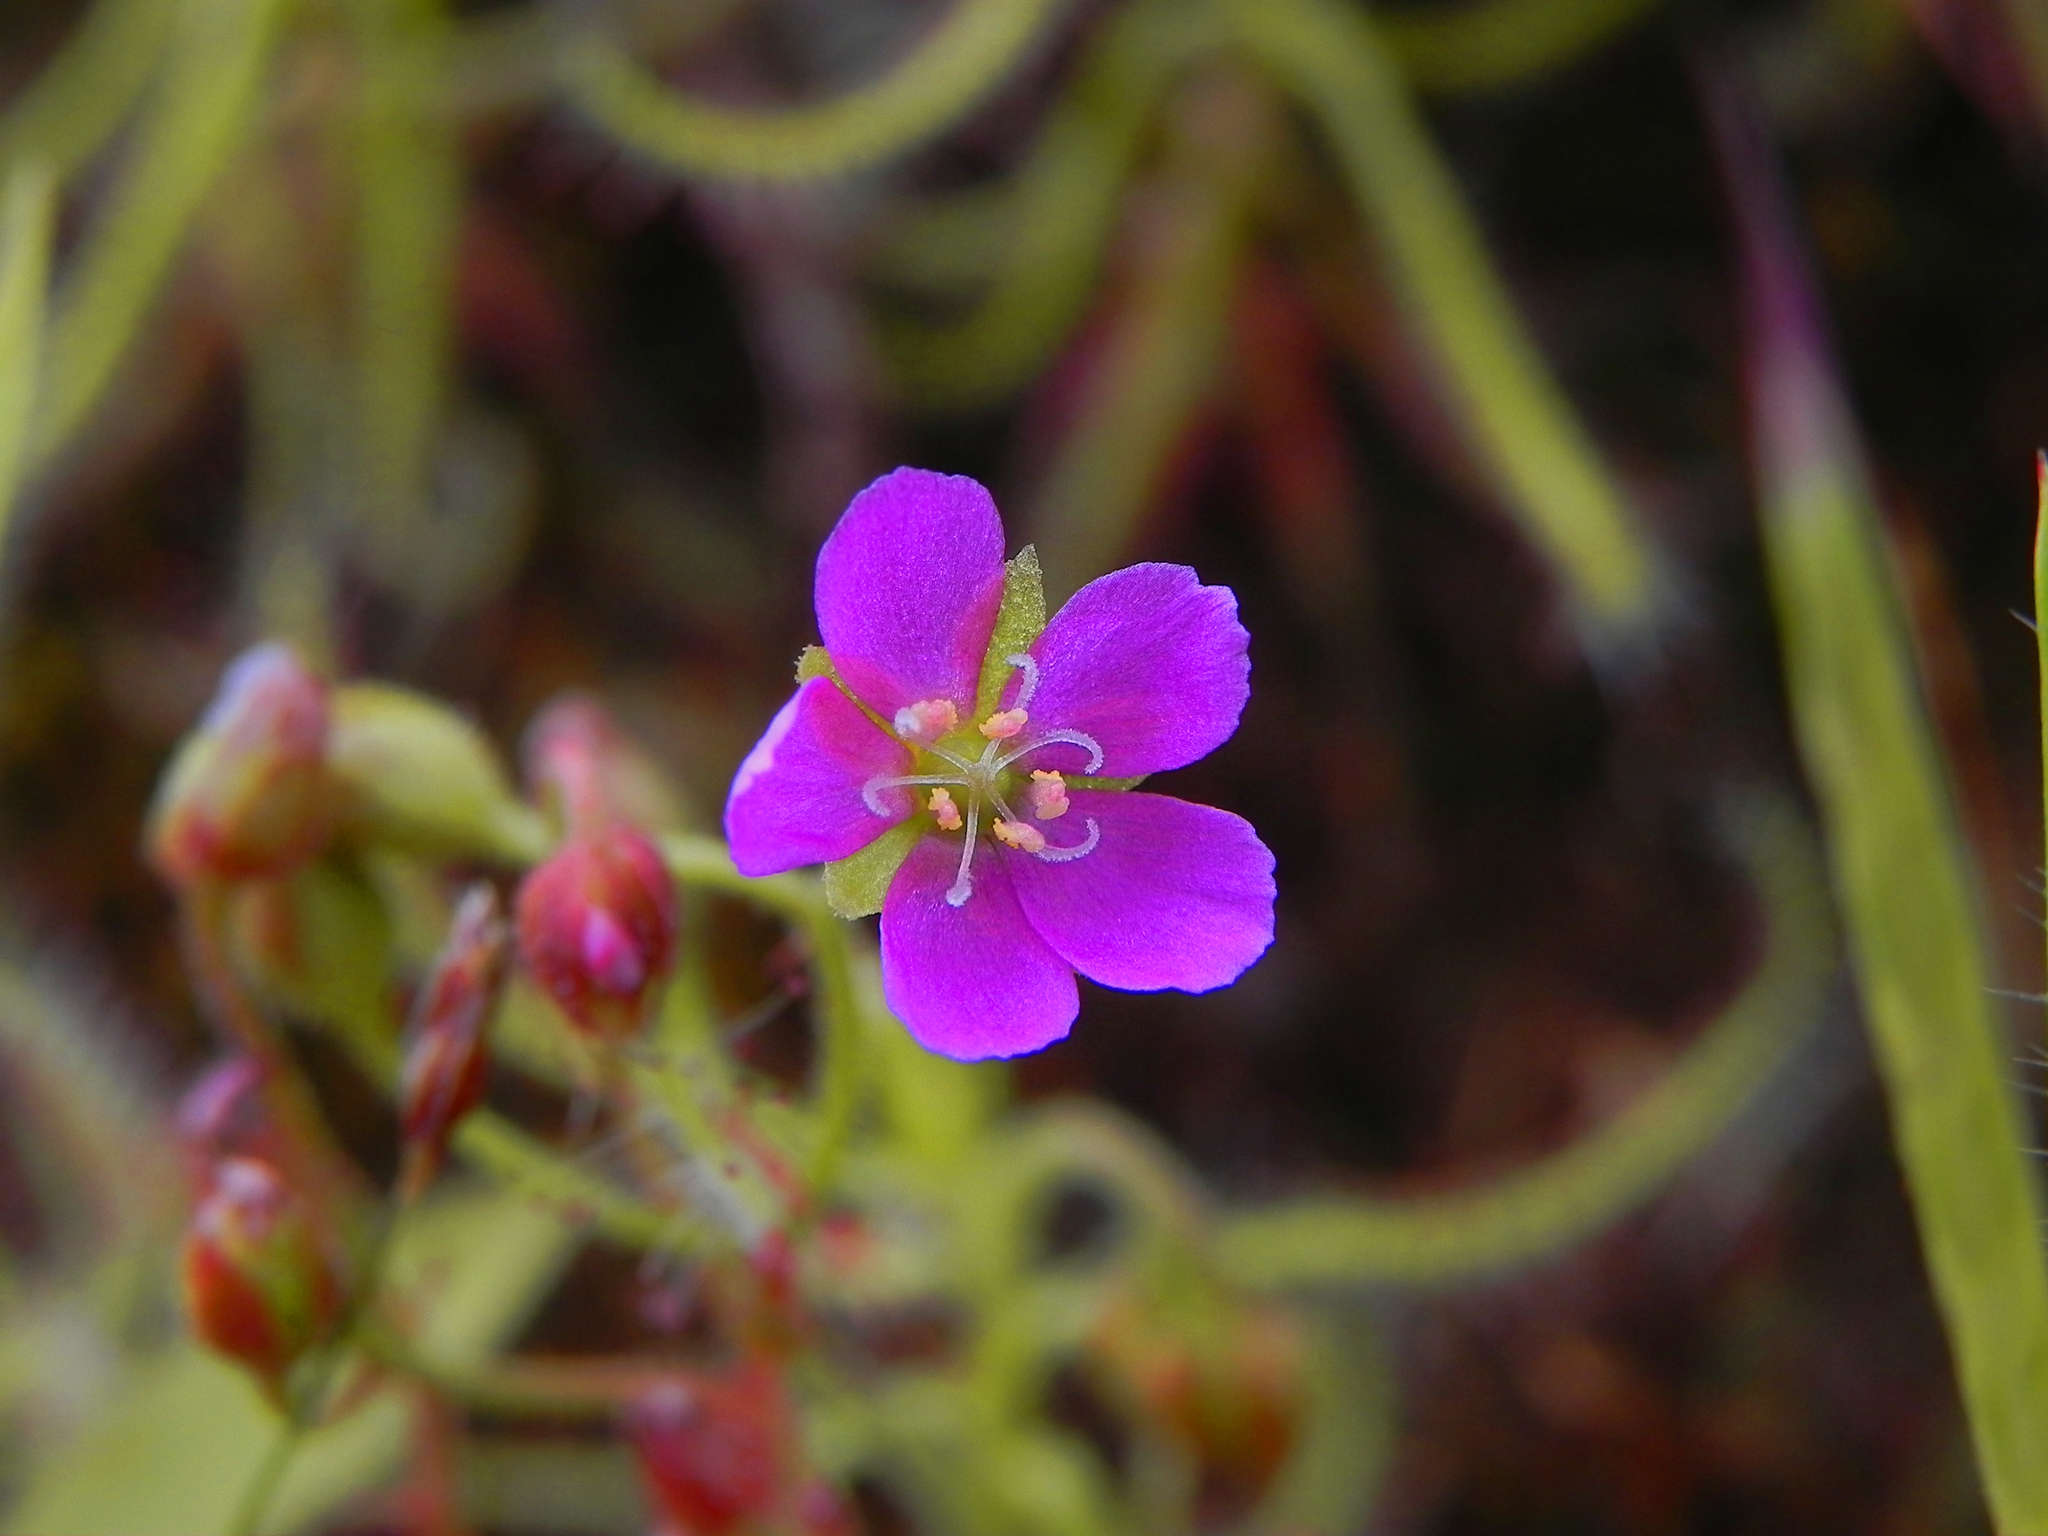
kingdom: Plantae
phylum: Tracheophyta
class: Magnoliopsida
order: Caryophyllales
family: Droseraceae
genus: Drosera
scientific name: Drosera indica
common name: Indian sundew
